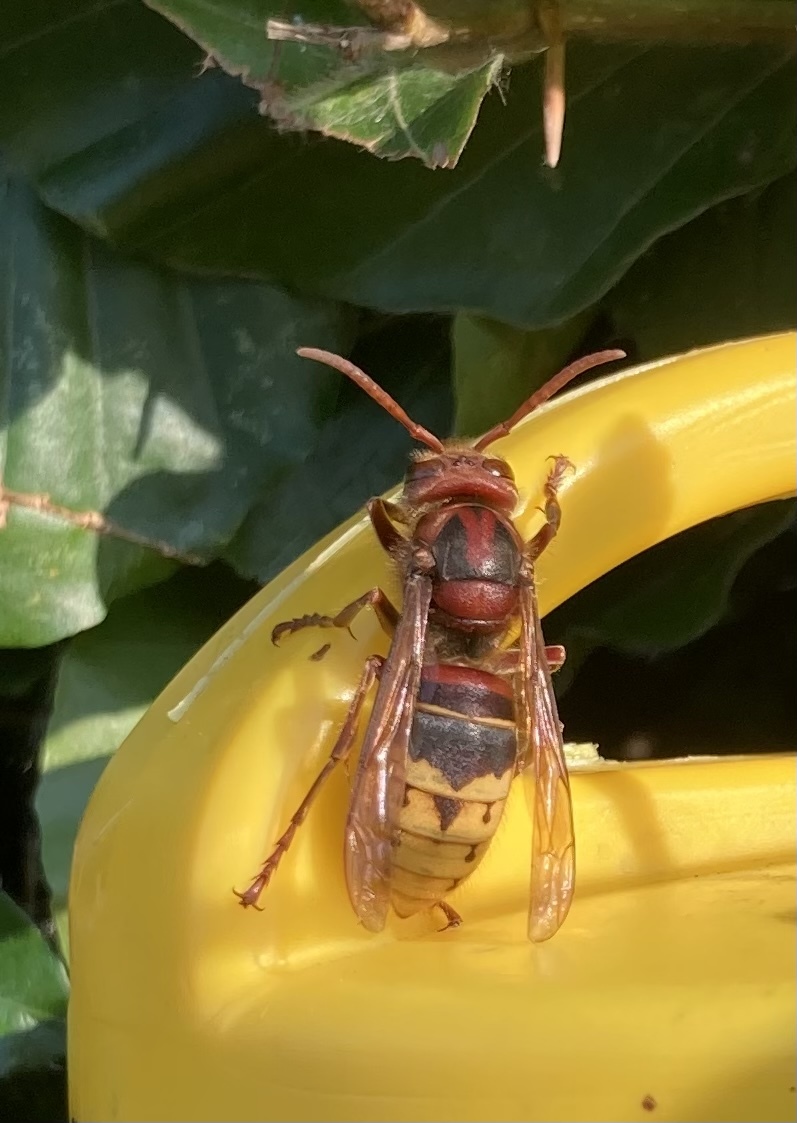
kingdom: Animalia
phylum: Arthropoda
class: Insecta
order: Hymenoptera
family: Vespidae
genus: Vespa
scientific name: Vespa crabro
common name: Hornet
